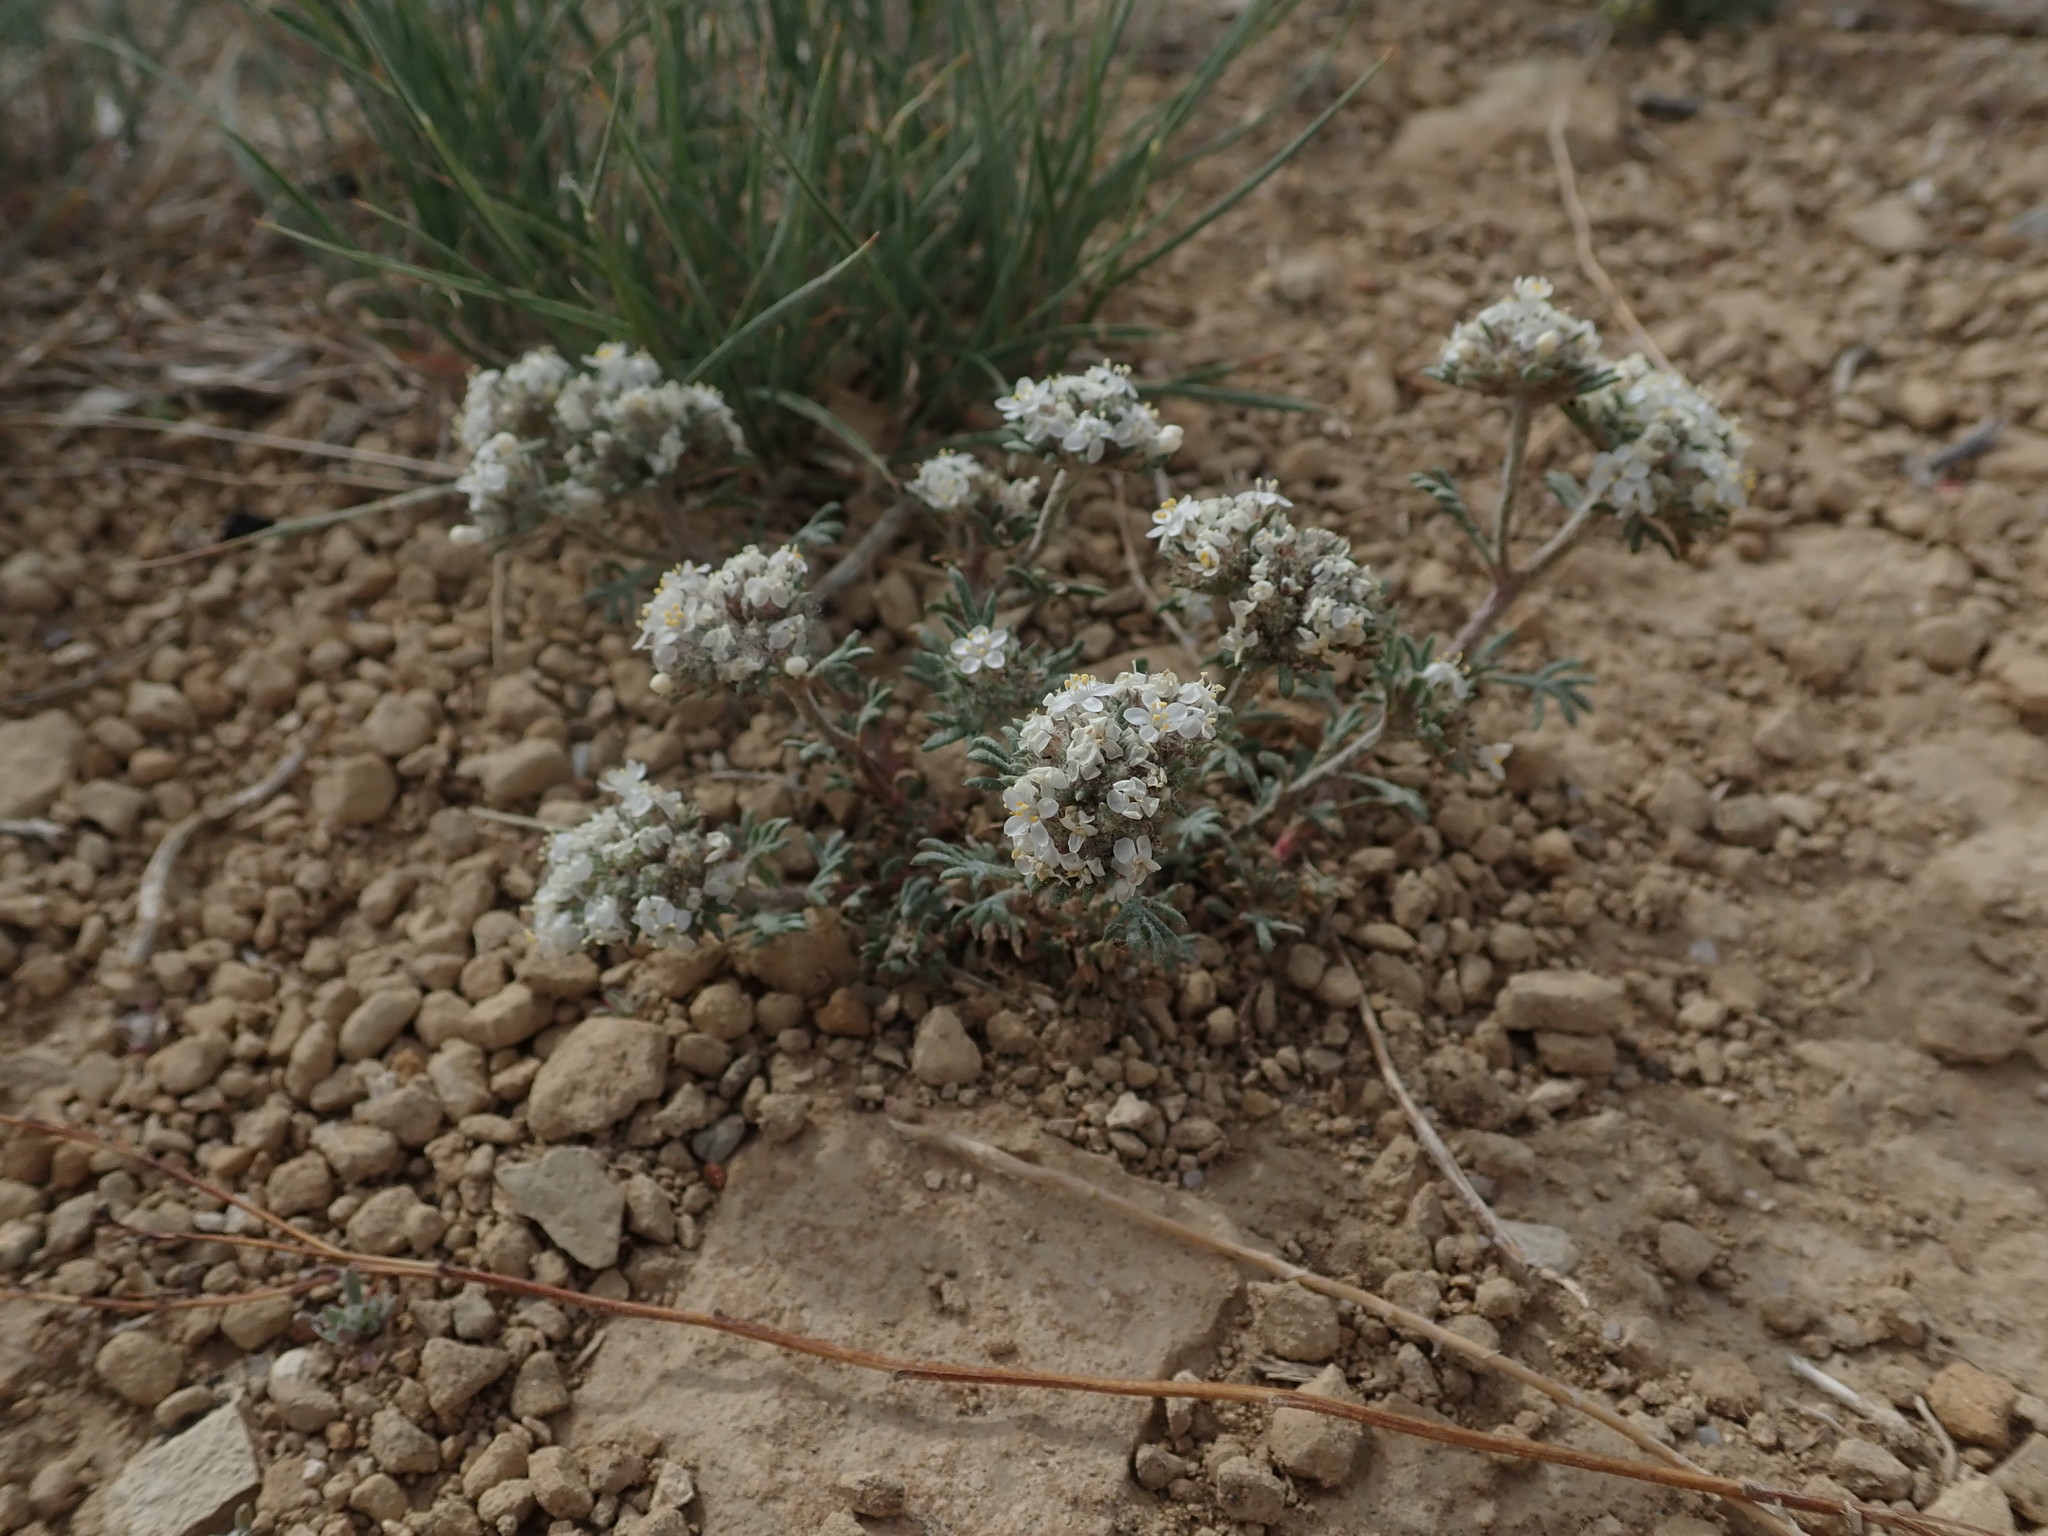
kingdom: Plantae
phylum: Tracheophyta
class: Magnoliopsida
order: Ericales
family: Polemoniaceae
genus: Ipomopsis
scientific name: Ipomopsis congesta
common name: Ball-head gilia
